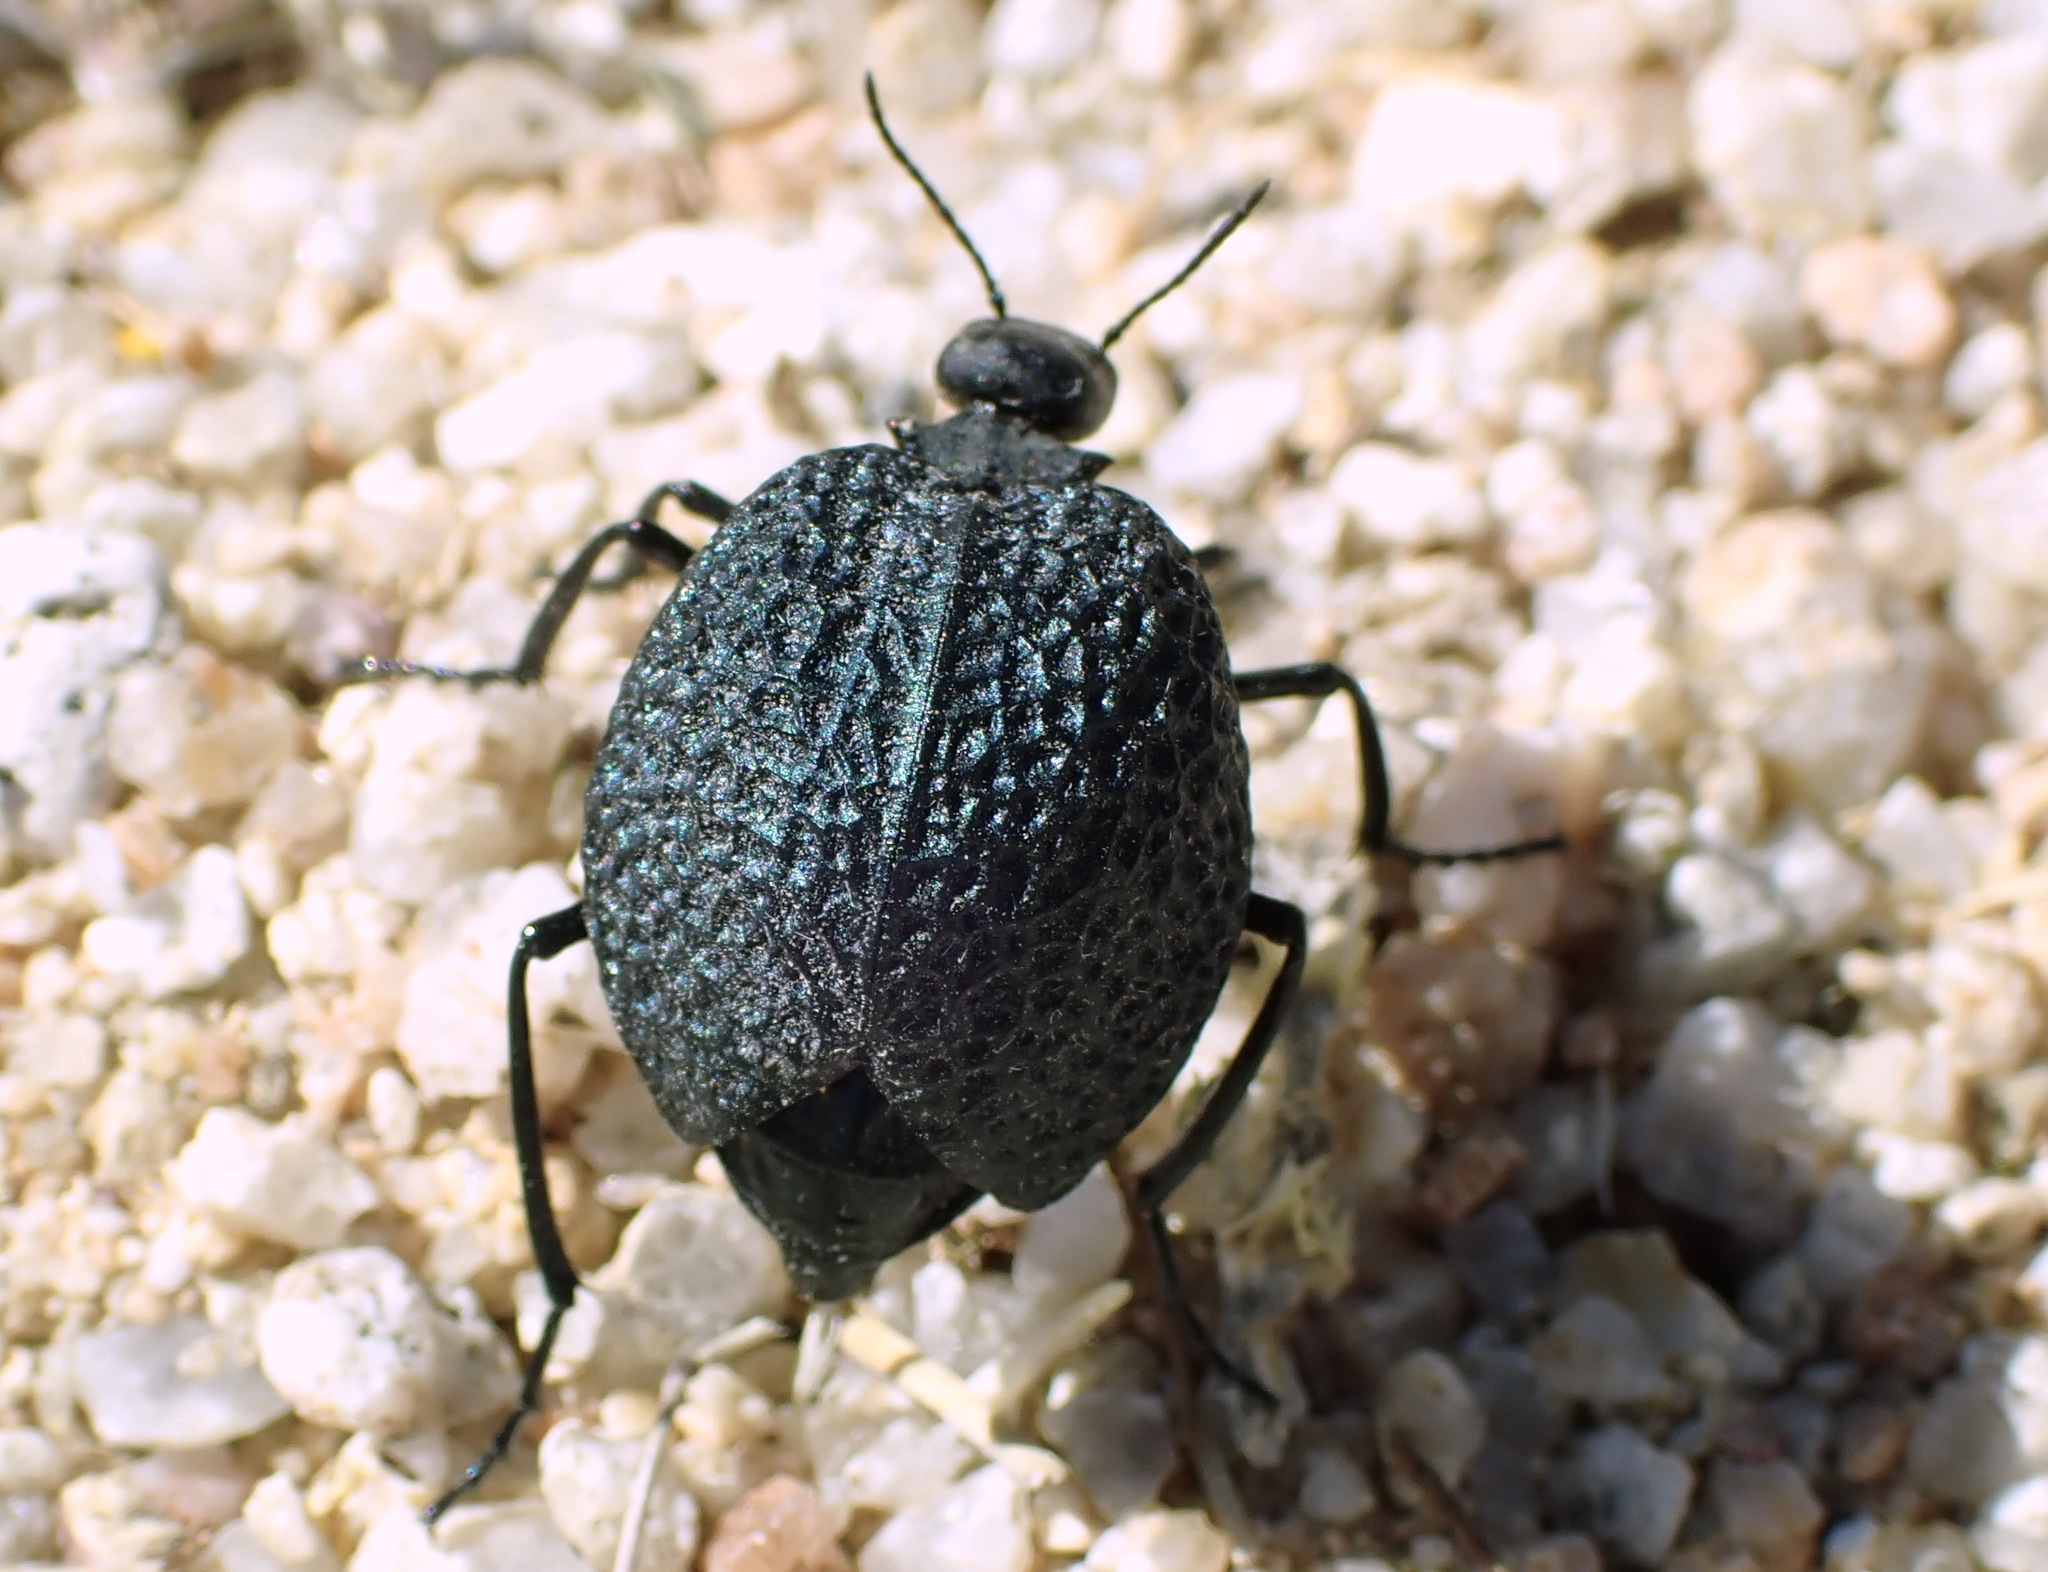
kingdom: Animalia
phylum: Arthropoda
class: Insecta
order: Coleoptera
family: Meloidae
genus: Cysteodemus
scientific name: Cysteodemus armatus
